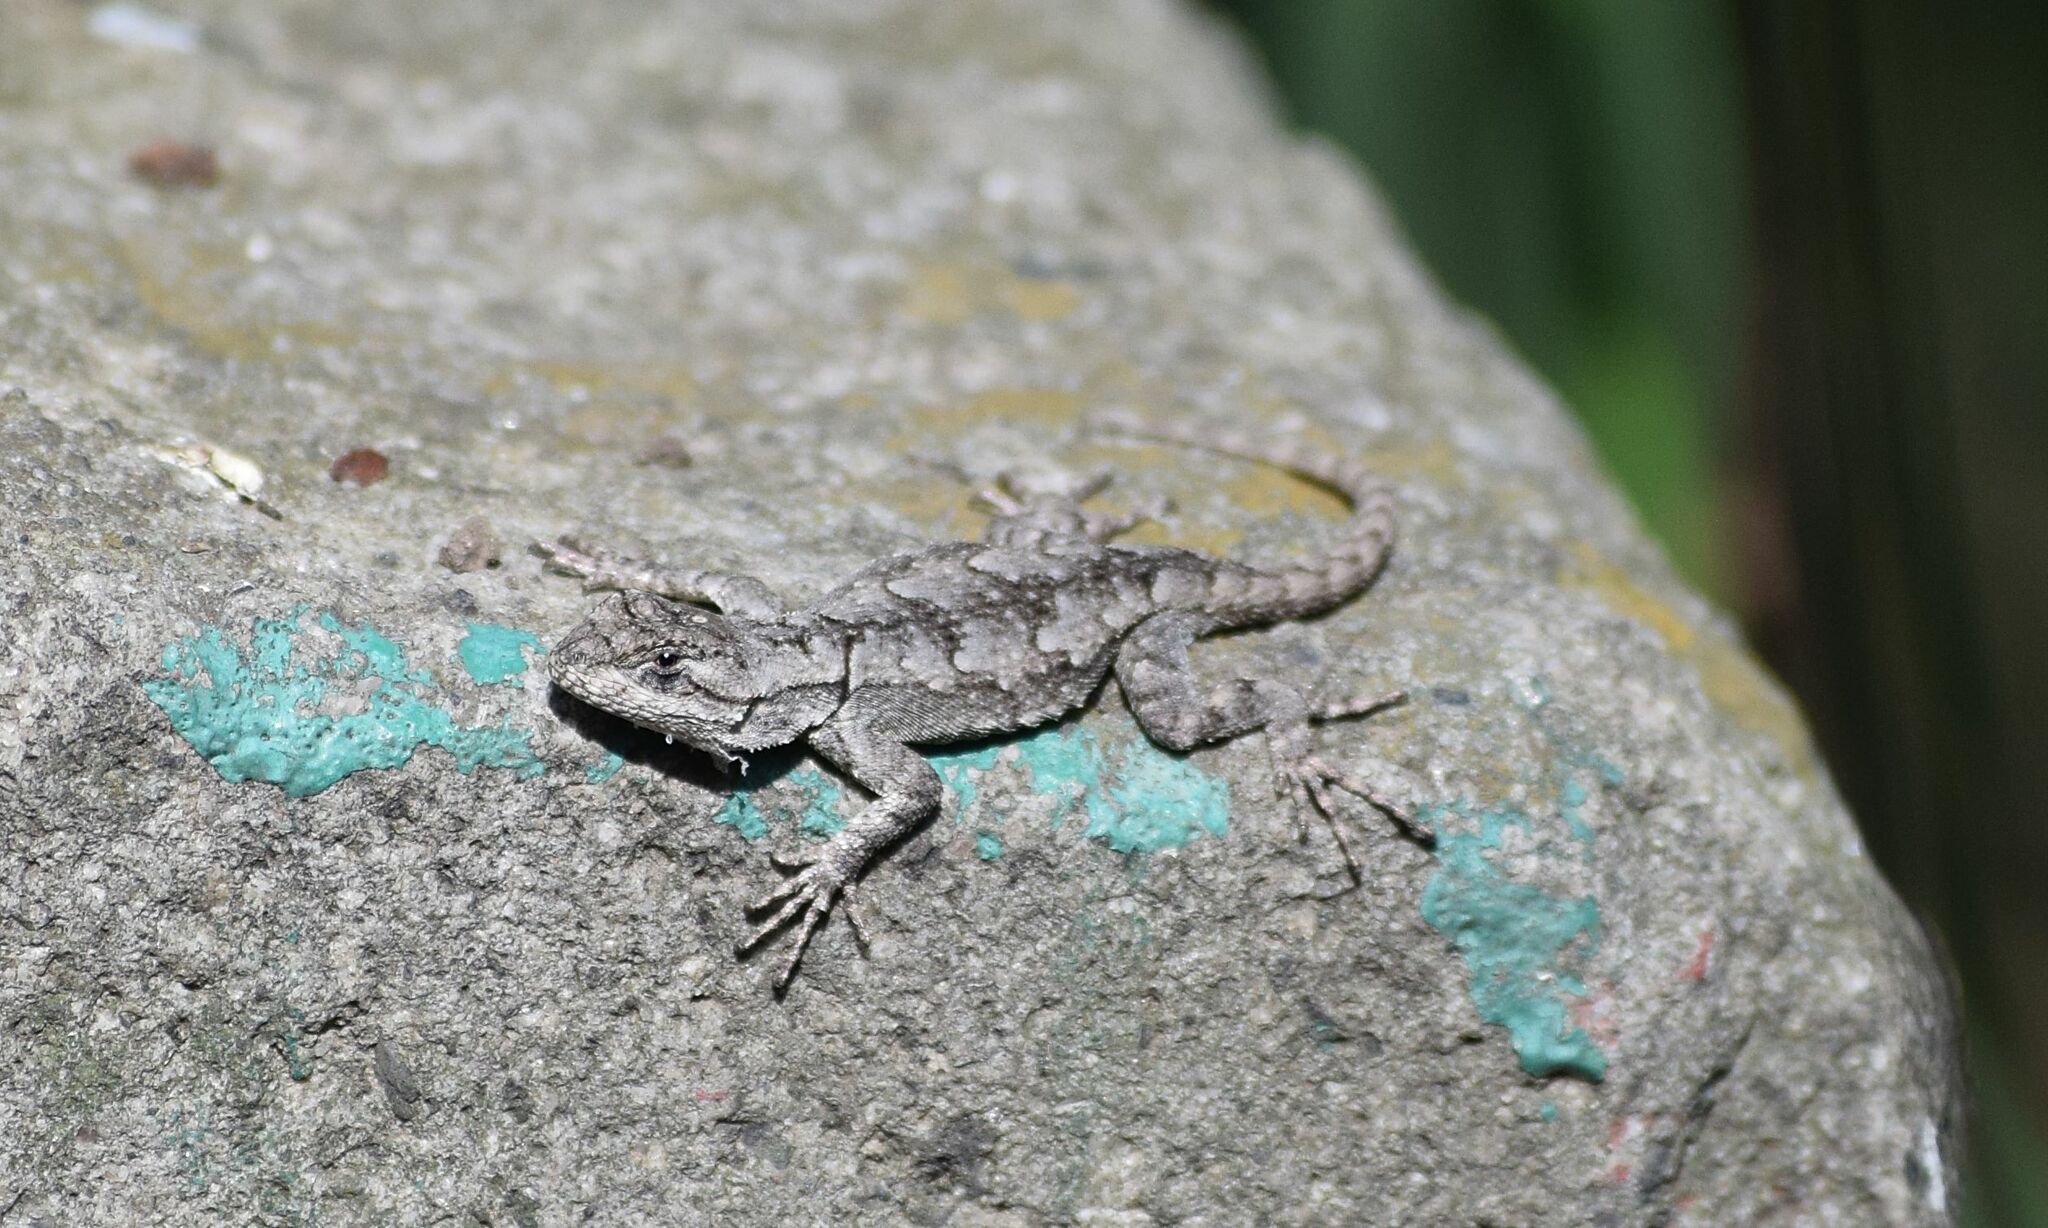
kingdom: Animalia
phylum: Chordata
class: Squamata
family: Phrynosomatidae
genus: Sceloporus
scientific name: Sceloporus grammicus
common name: Mesquite lizard
